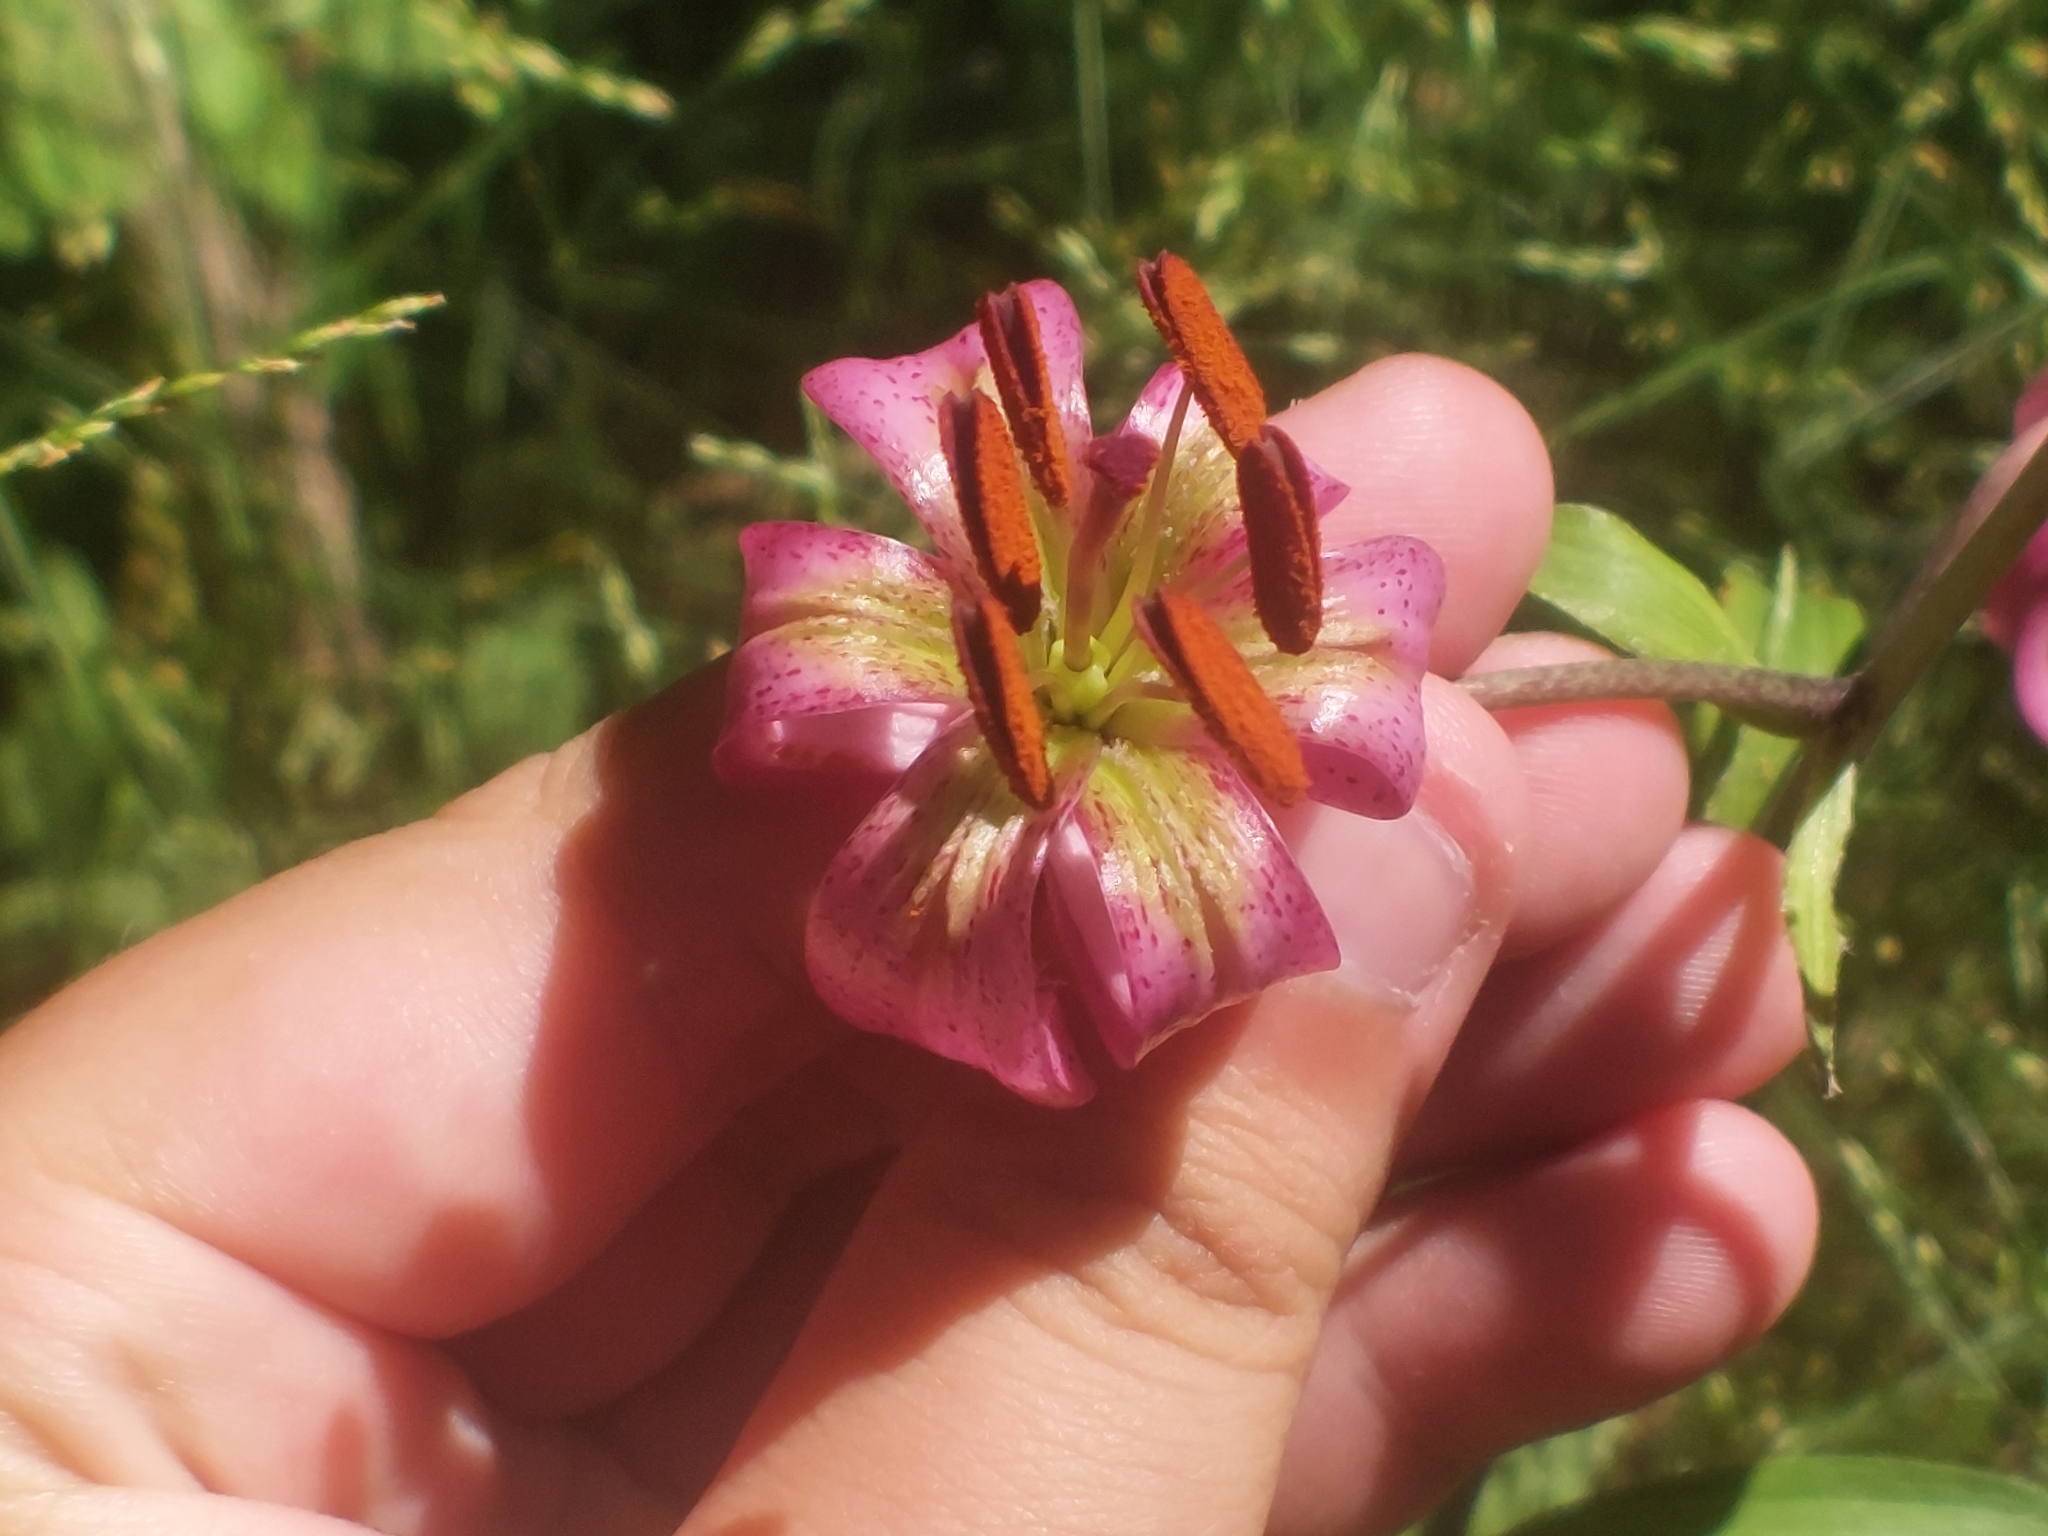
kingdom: Plantae
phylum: Tracheophyta
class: Liliopsida
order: Liliales
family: Liliaceae
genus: Lilium
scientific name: Lilium martagon
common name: Martagon lily
